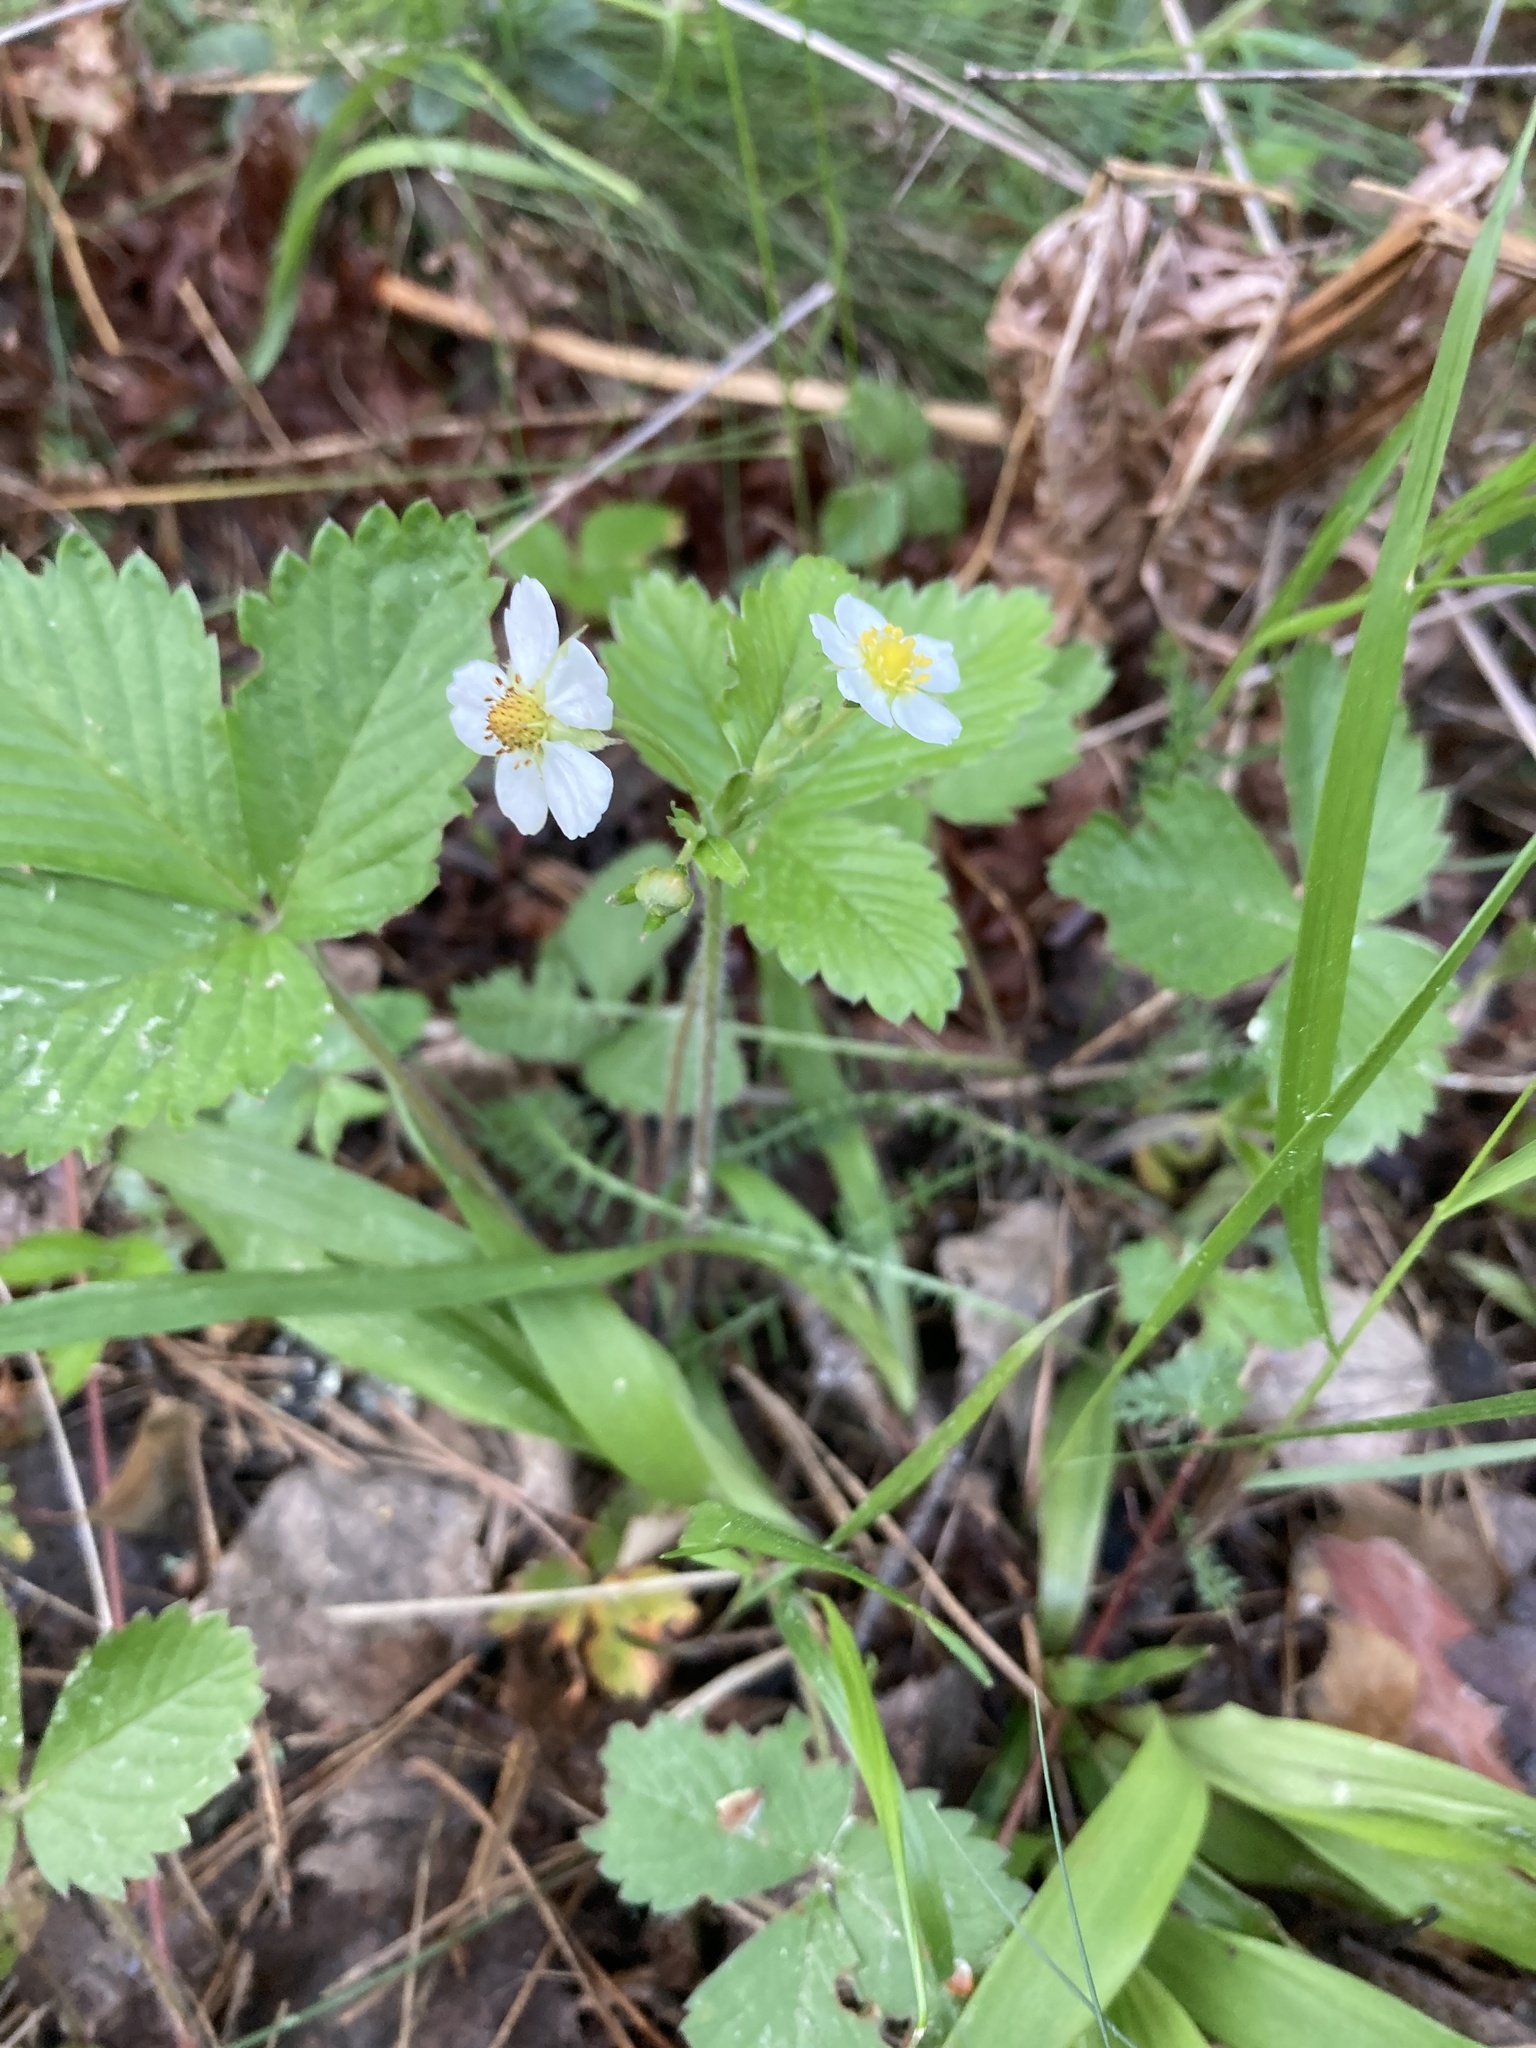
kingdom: Plantae
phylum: Tracheophyta
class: Magnoliopsida
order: Rosales
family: Rosaceae
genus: Fragaria
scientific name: Fragaria vesca
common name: Wild strawberry
